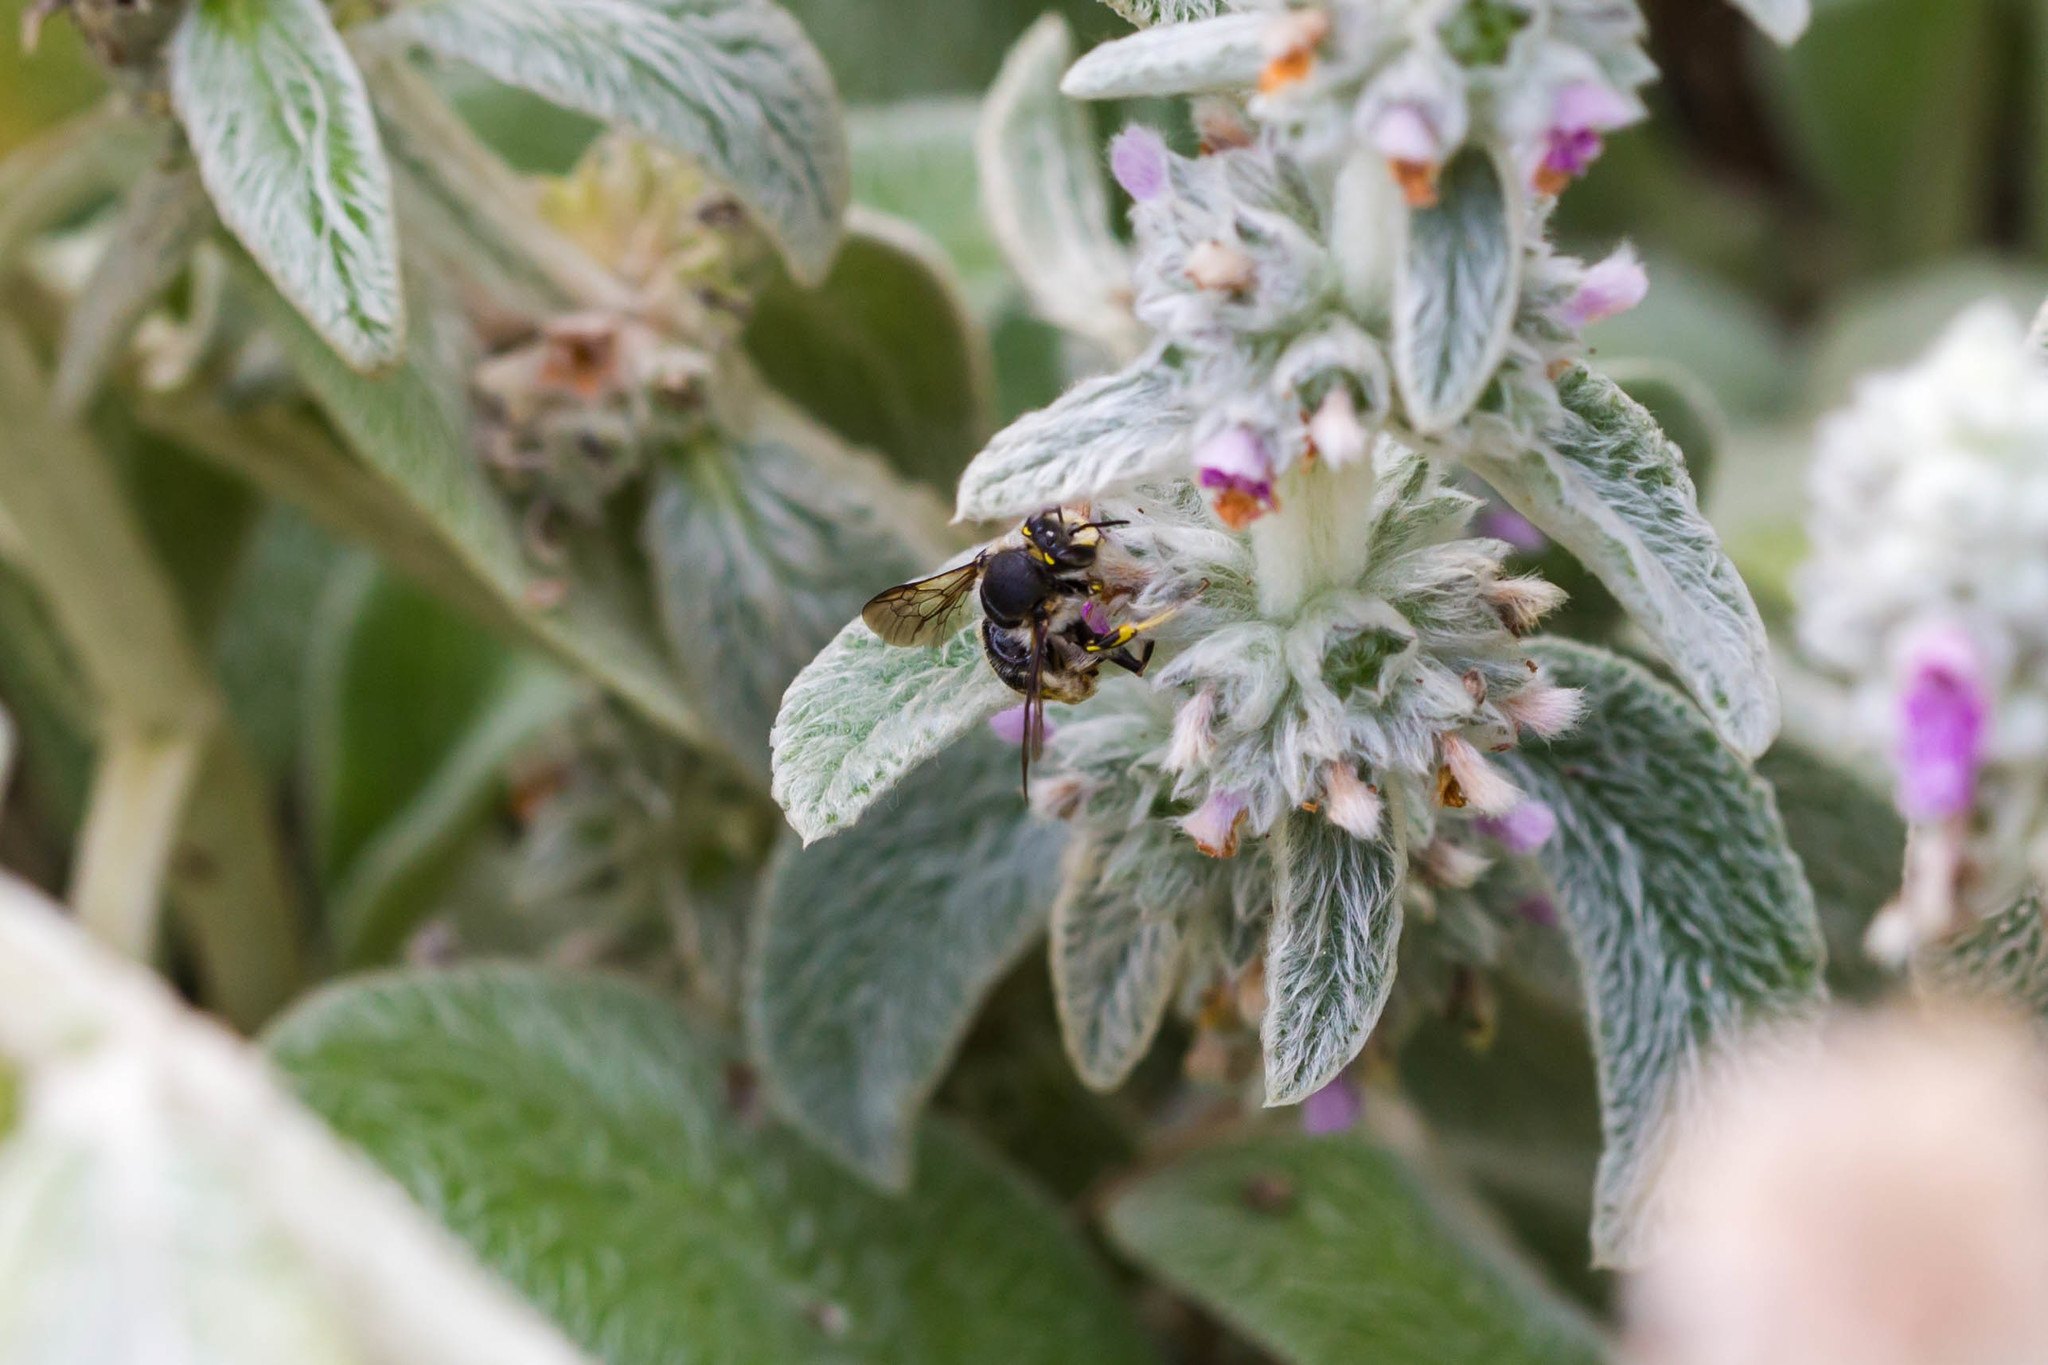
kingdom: Animalia
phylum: Arthropoda
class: Insecta
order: Hymenoptera
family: Megachilidae
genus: Anthidium
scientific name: Anthidium manicatum
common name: Wool carder bee
